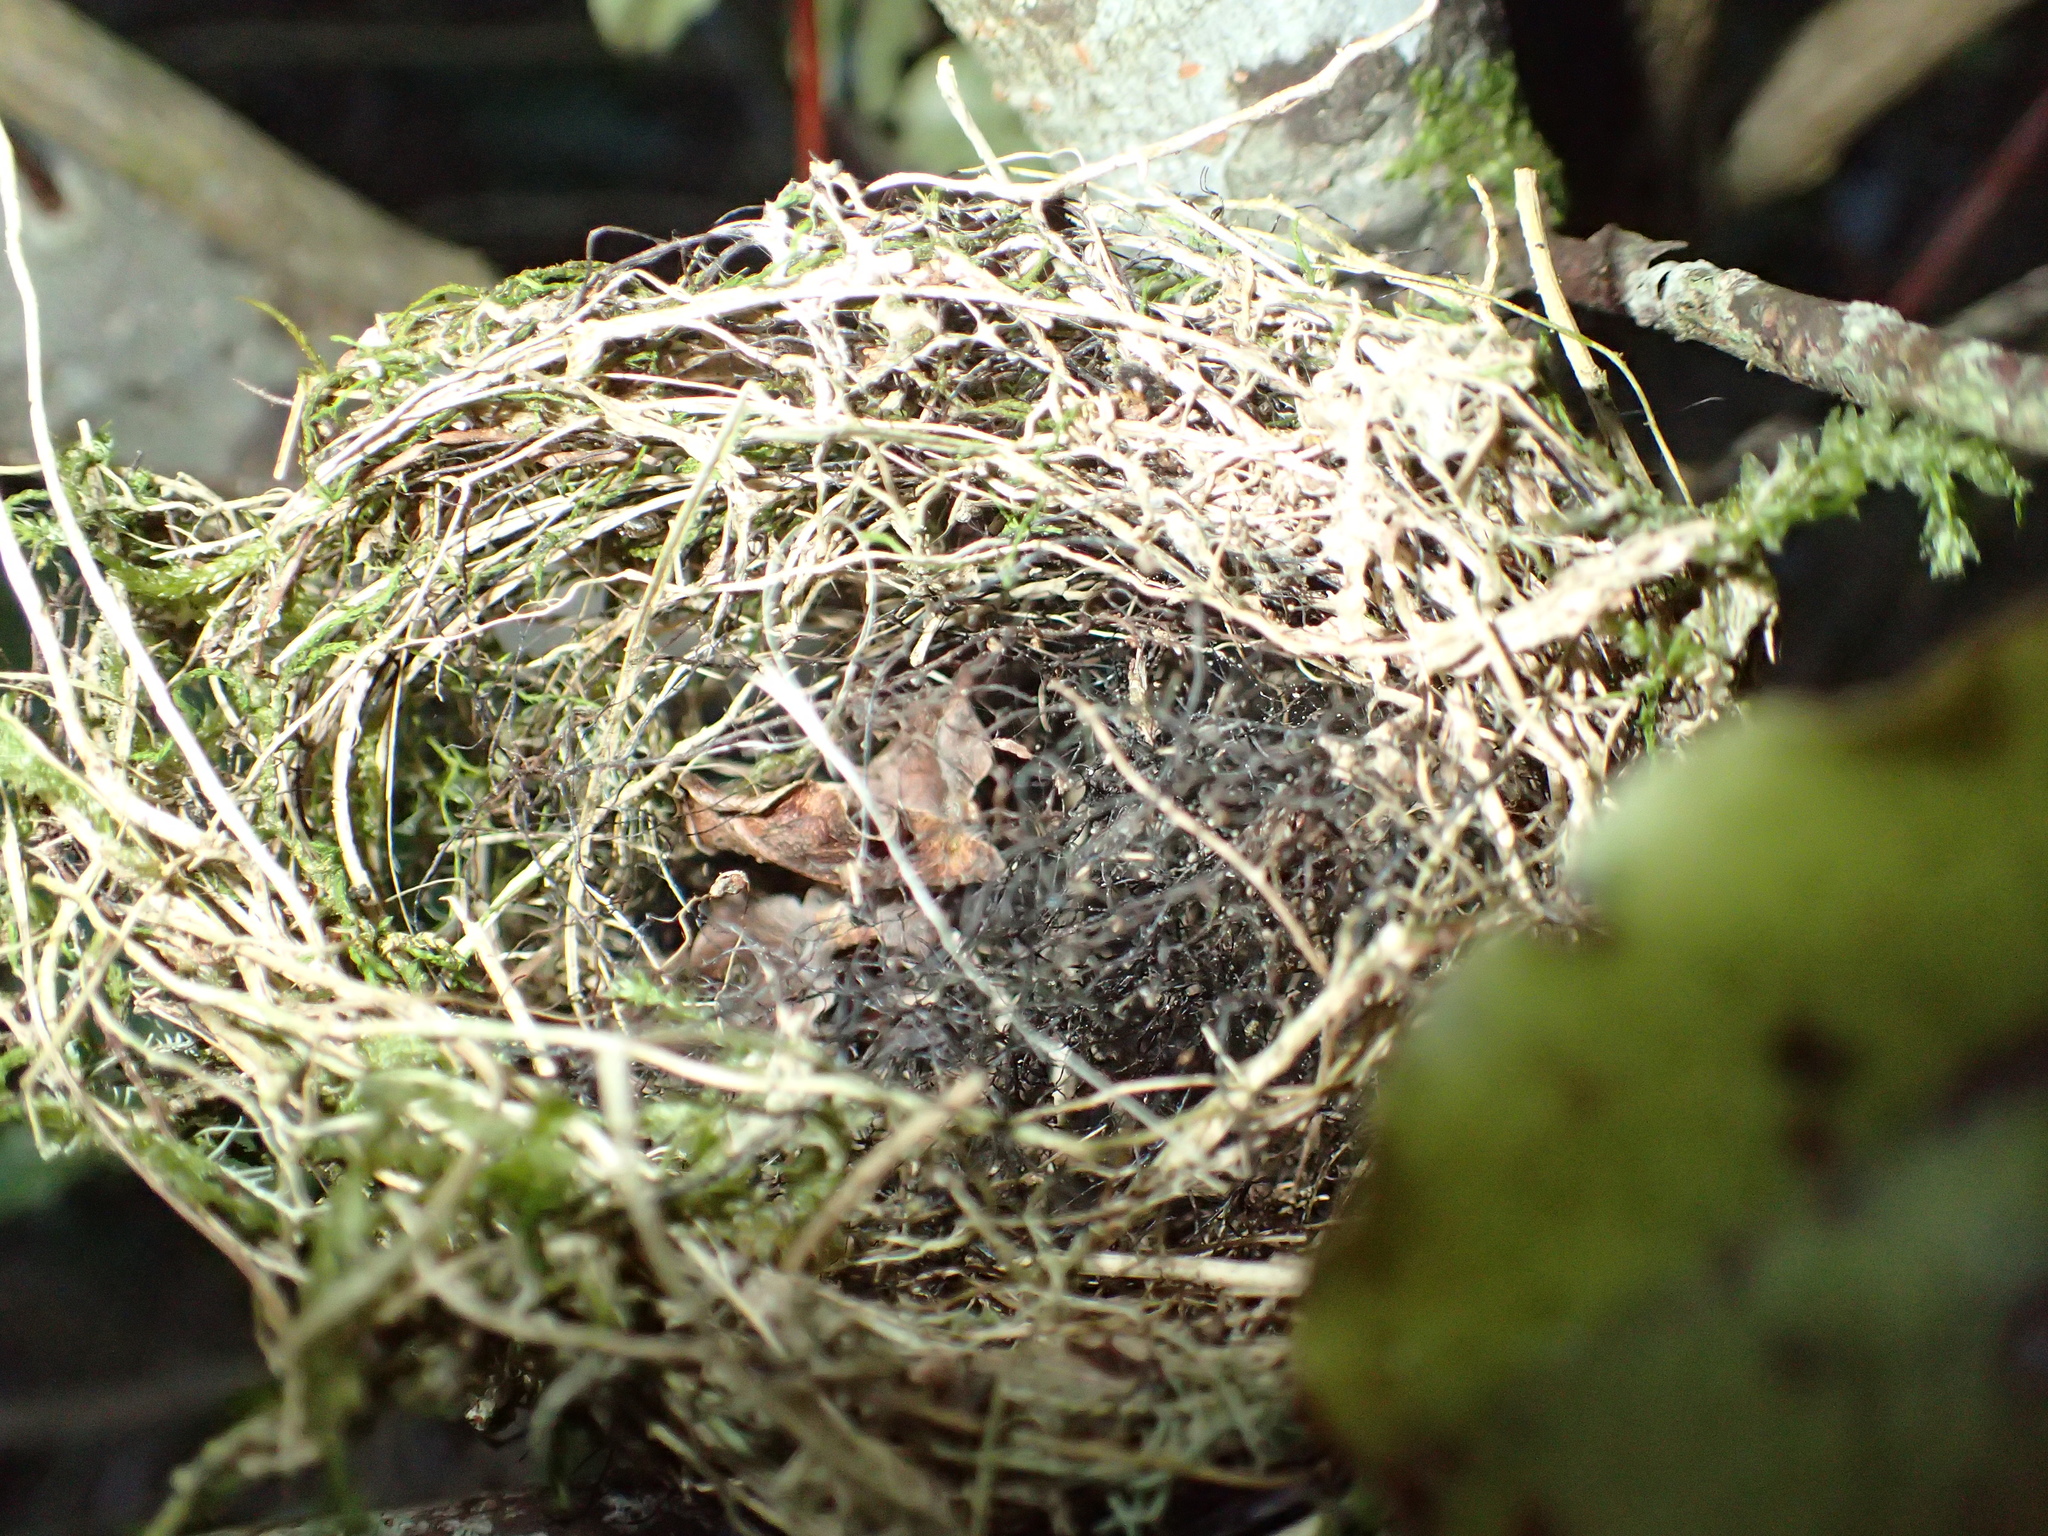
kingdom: Animalia
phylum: Chordata
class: Aves
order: Passeriformes
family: Zosteropidae
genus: Zosterops
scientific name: Zosterops lateralis
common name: Silvereye
